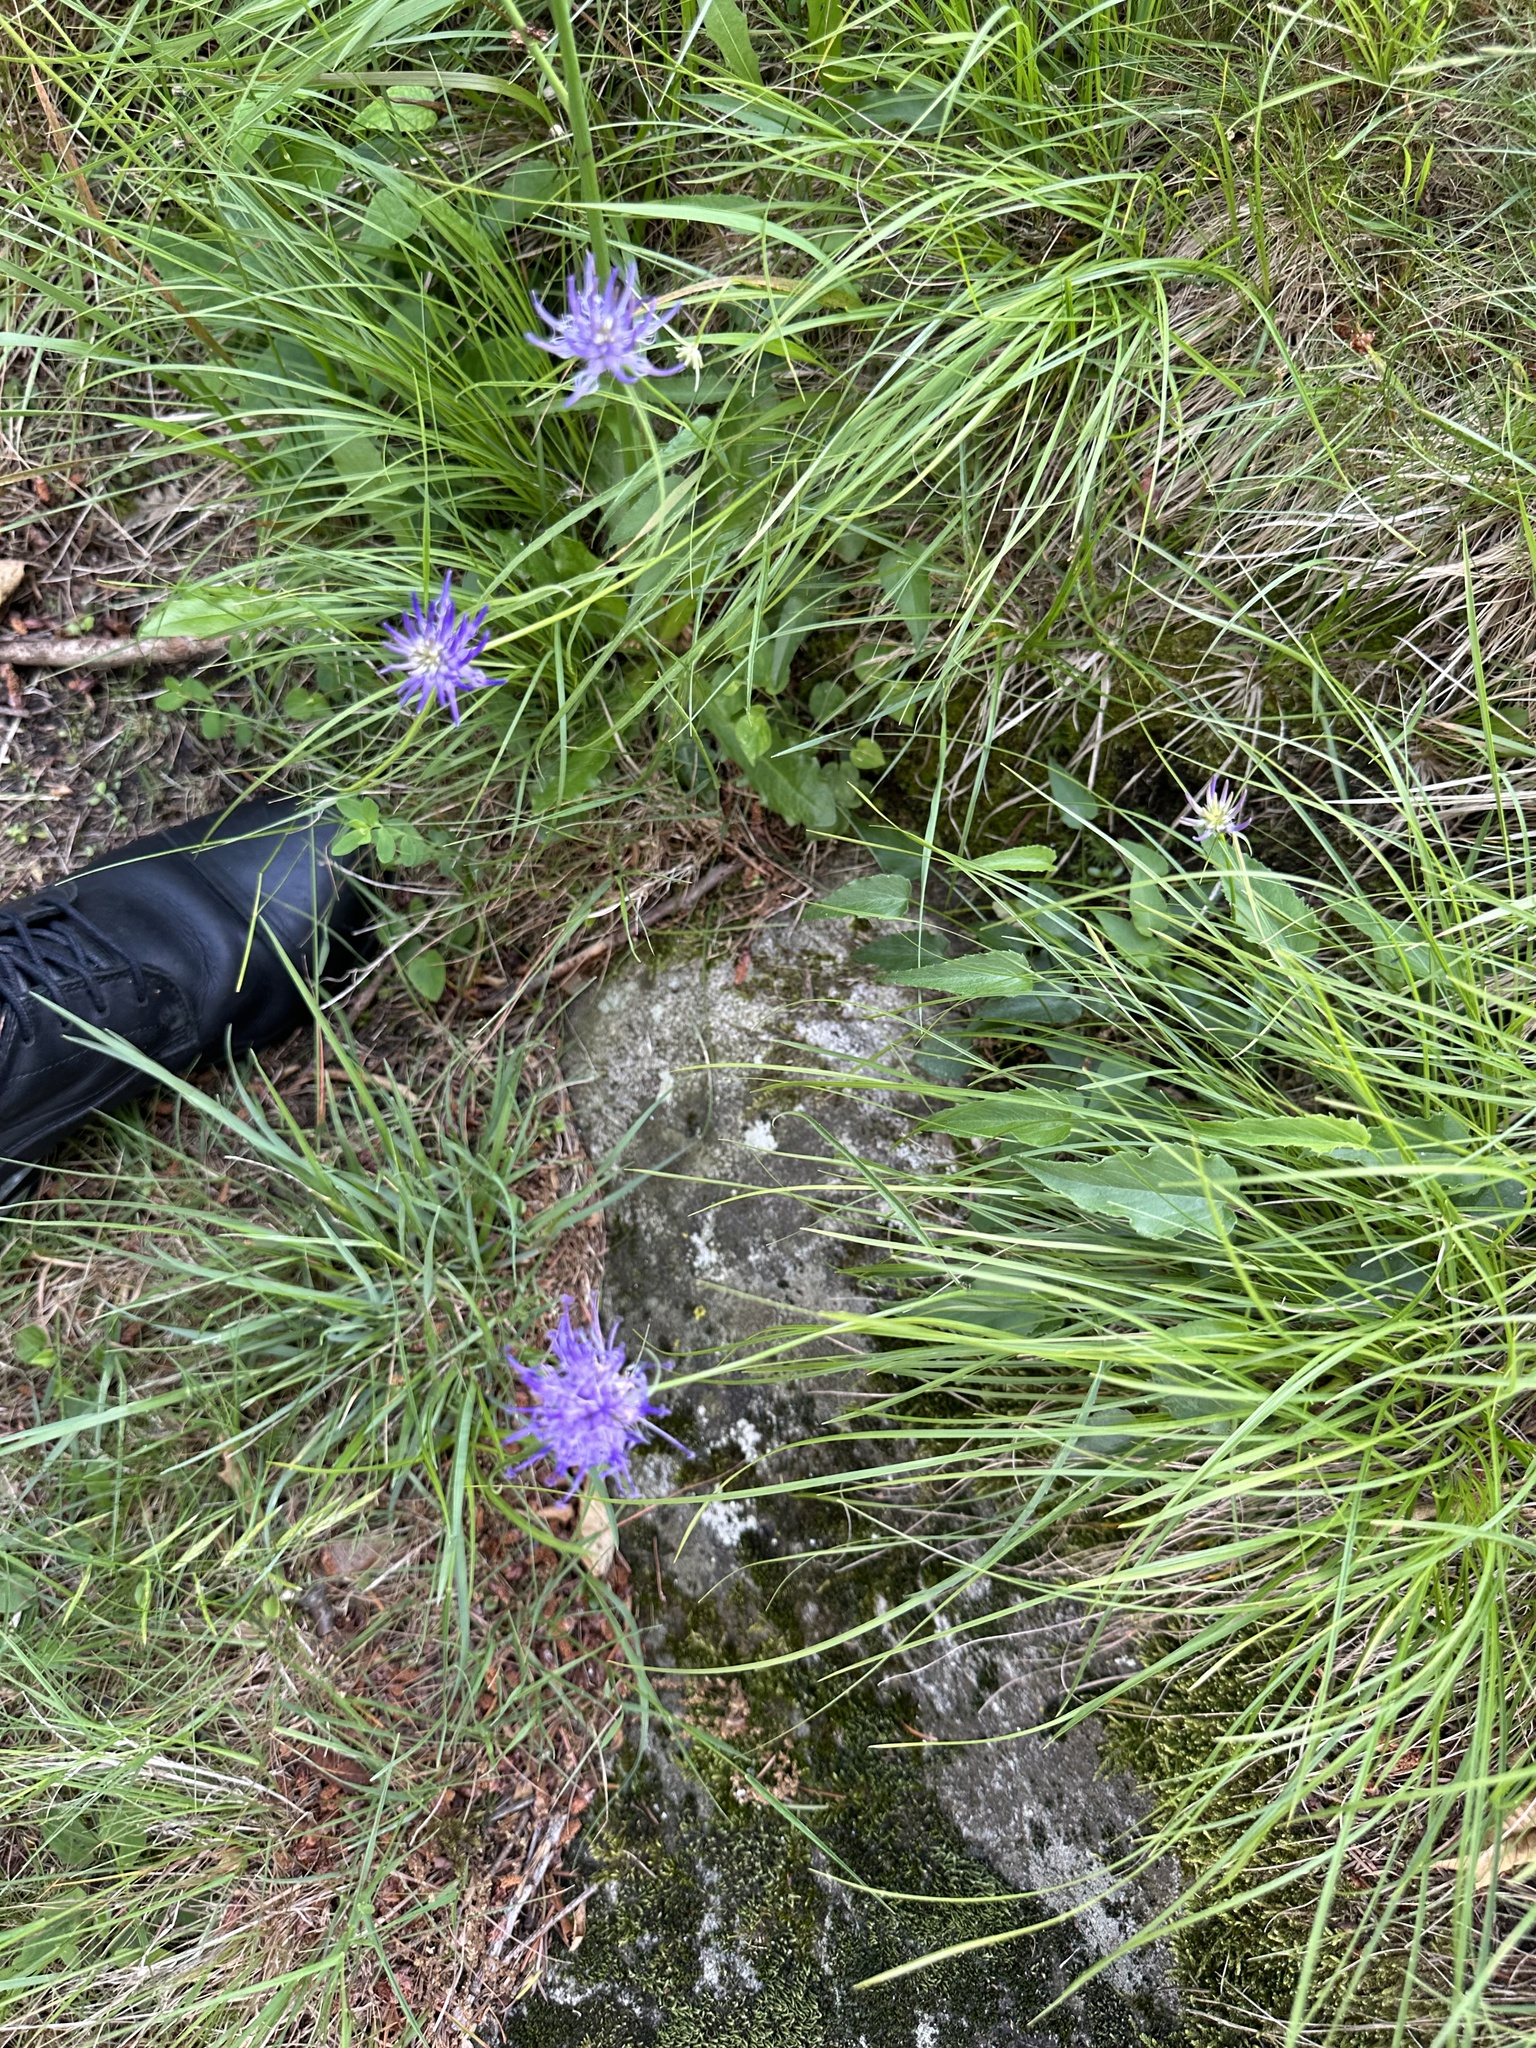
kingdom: Plantae
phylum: Tracheophyta
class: Magnoliopsida
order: Asterales
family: Campanulaceae
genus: Phyteuma
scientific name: Phyteuma scheuchzeri
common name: Oxford rampion
